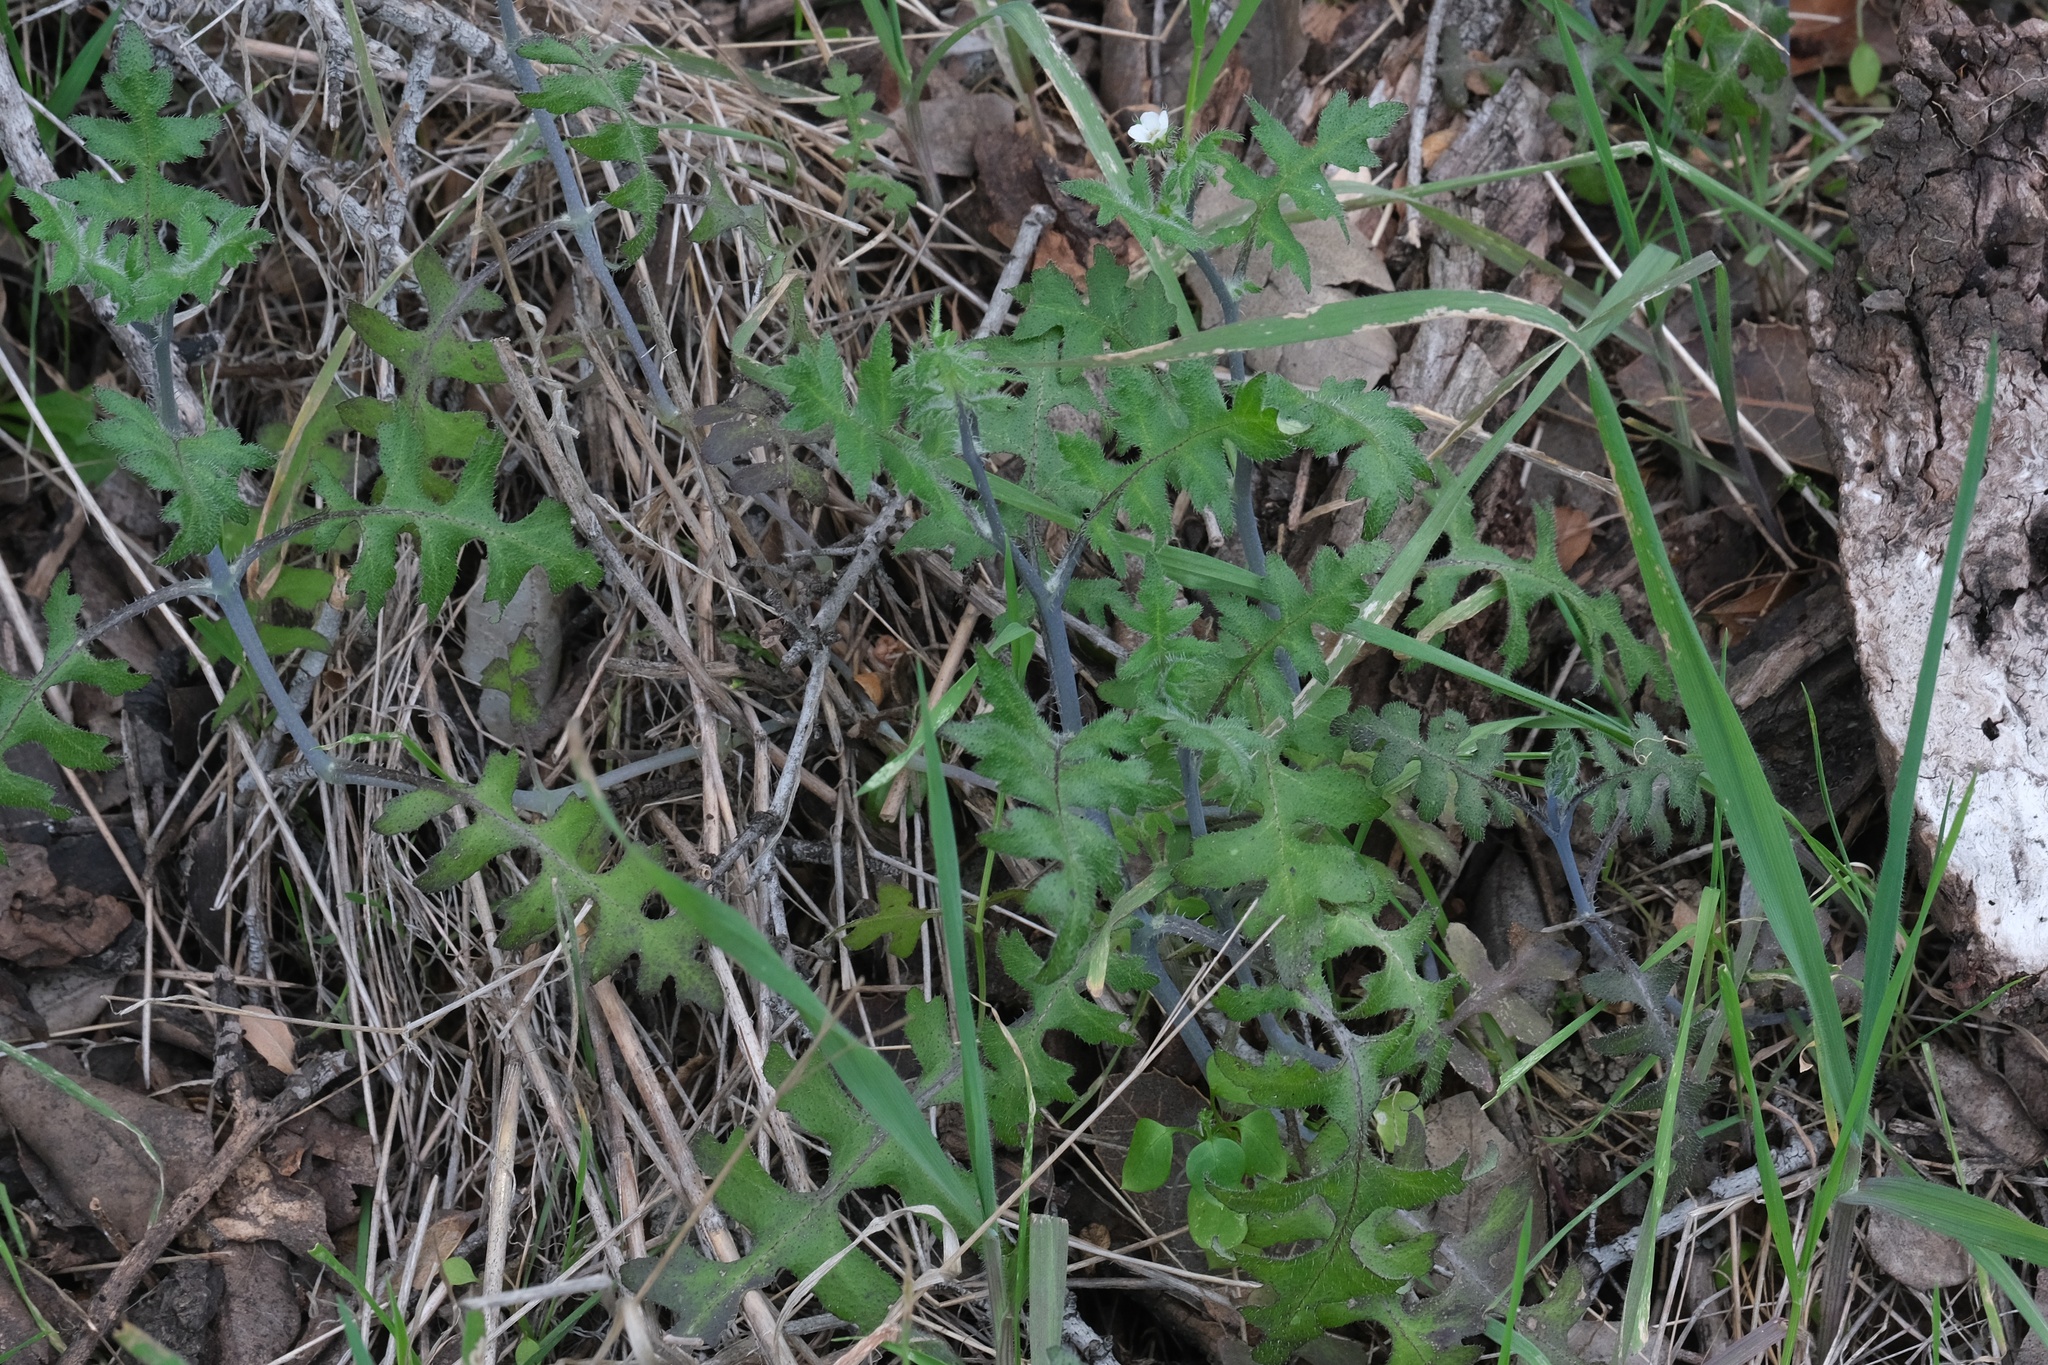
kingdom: Plantae
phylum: Tracheophyta
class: Magnoliopsida
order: Boraginales
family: Hydrophyllaceae
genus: Pholistoma
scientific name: Pholistoma racemosum
